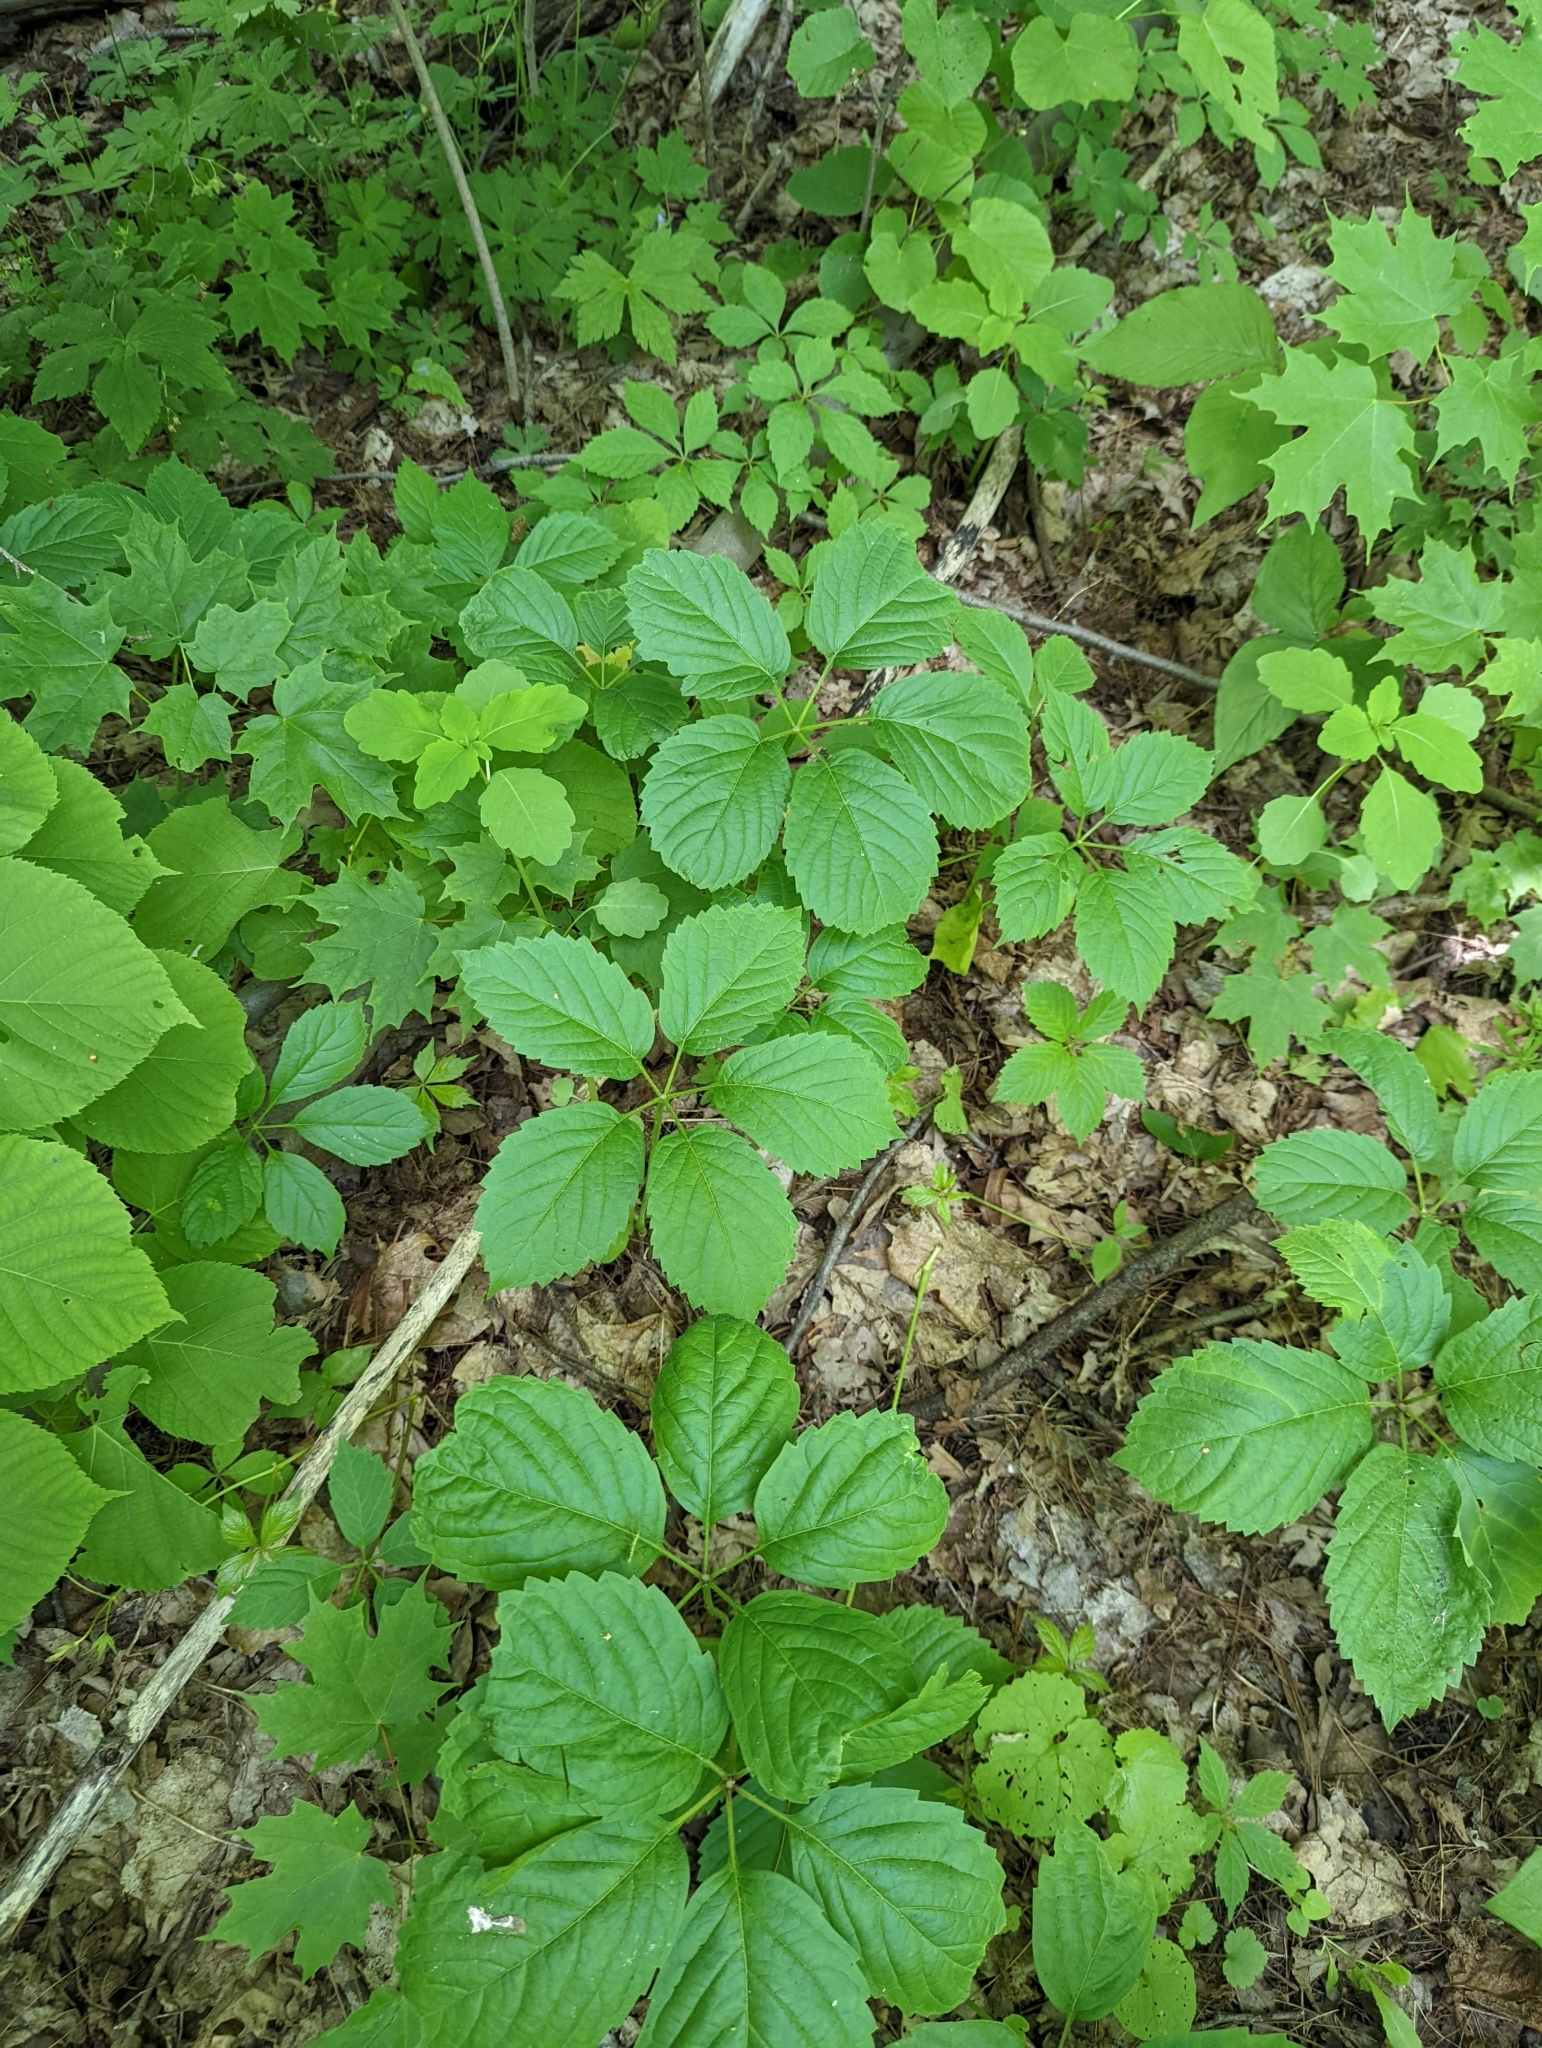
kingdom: Plantae
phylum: Tracheophyta
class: Magnoliopsida
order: Vitales
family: Vitaceae
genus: Parthenocissus
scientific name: Parthenocissus inserta
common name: False virginia-creeper
